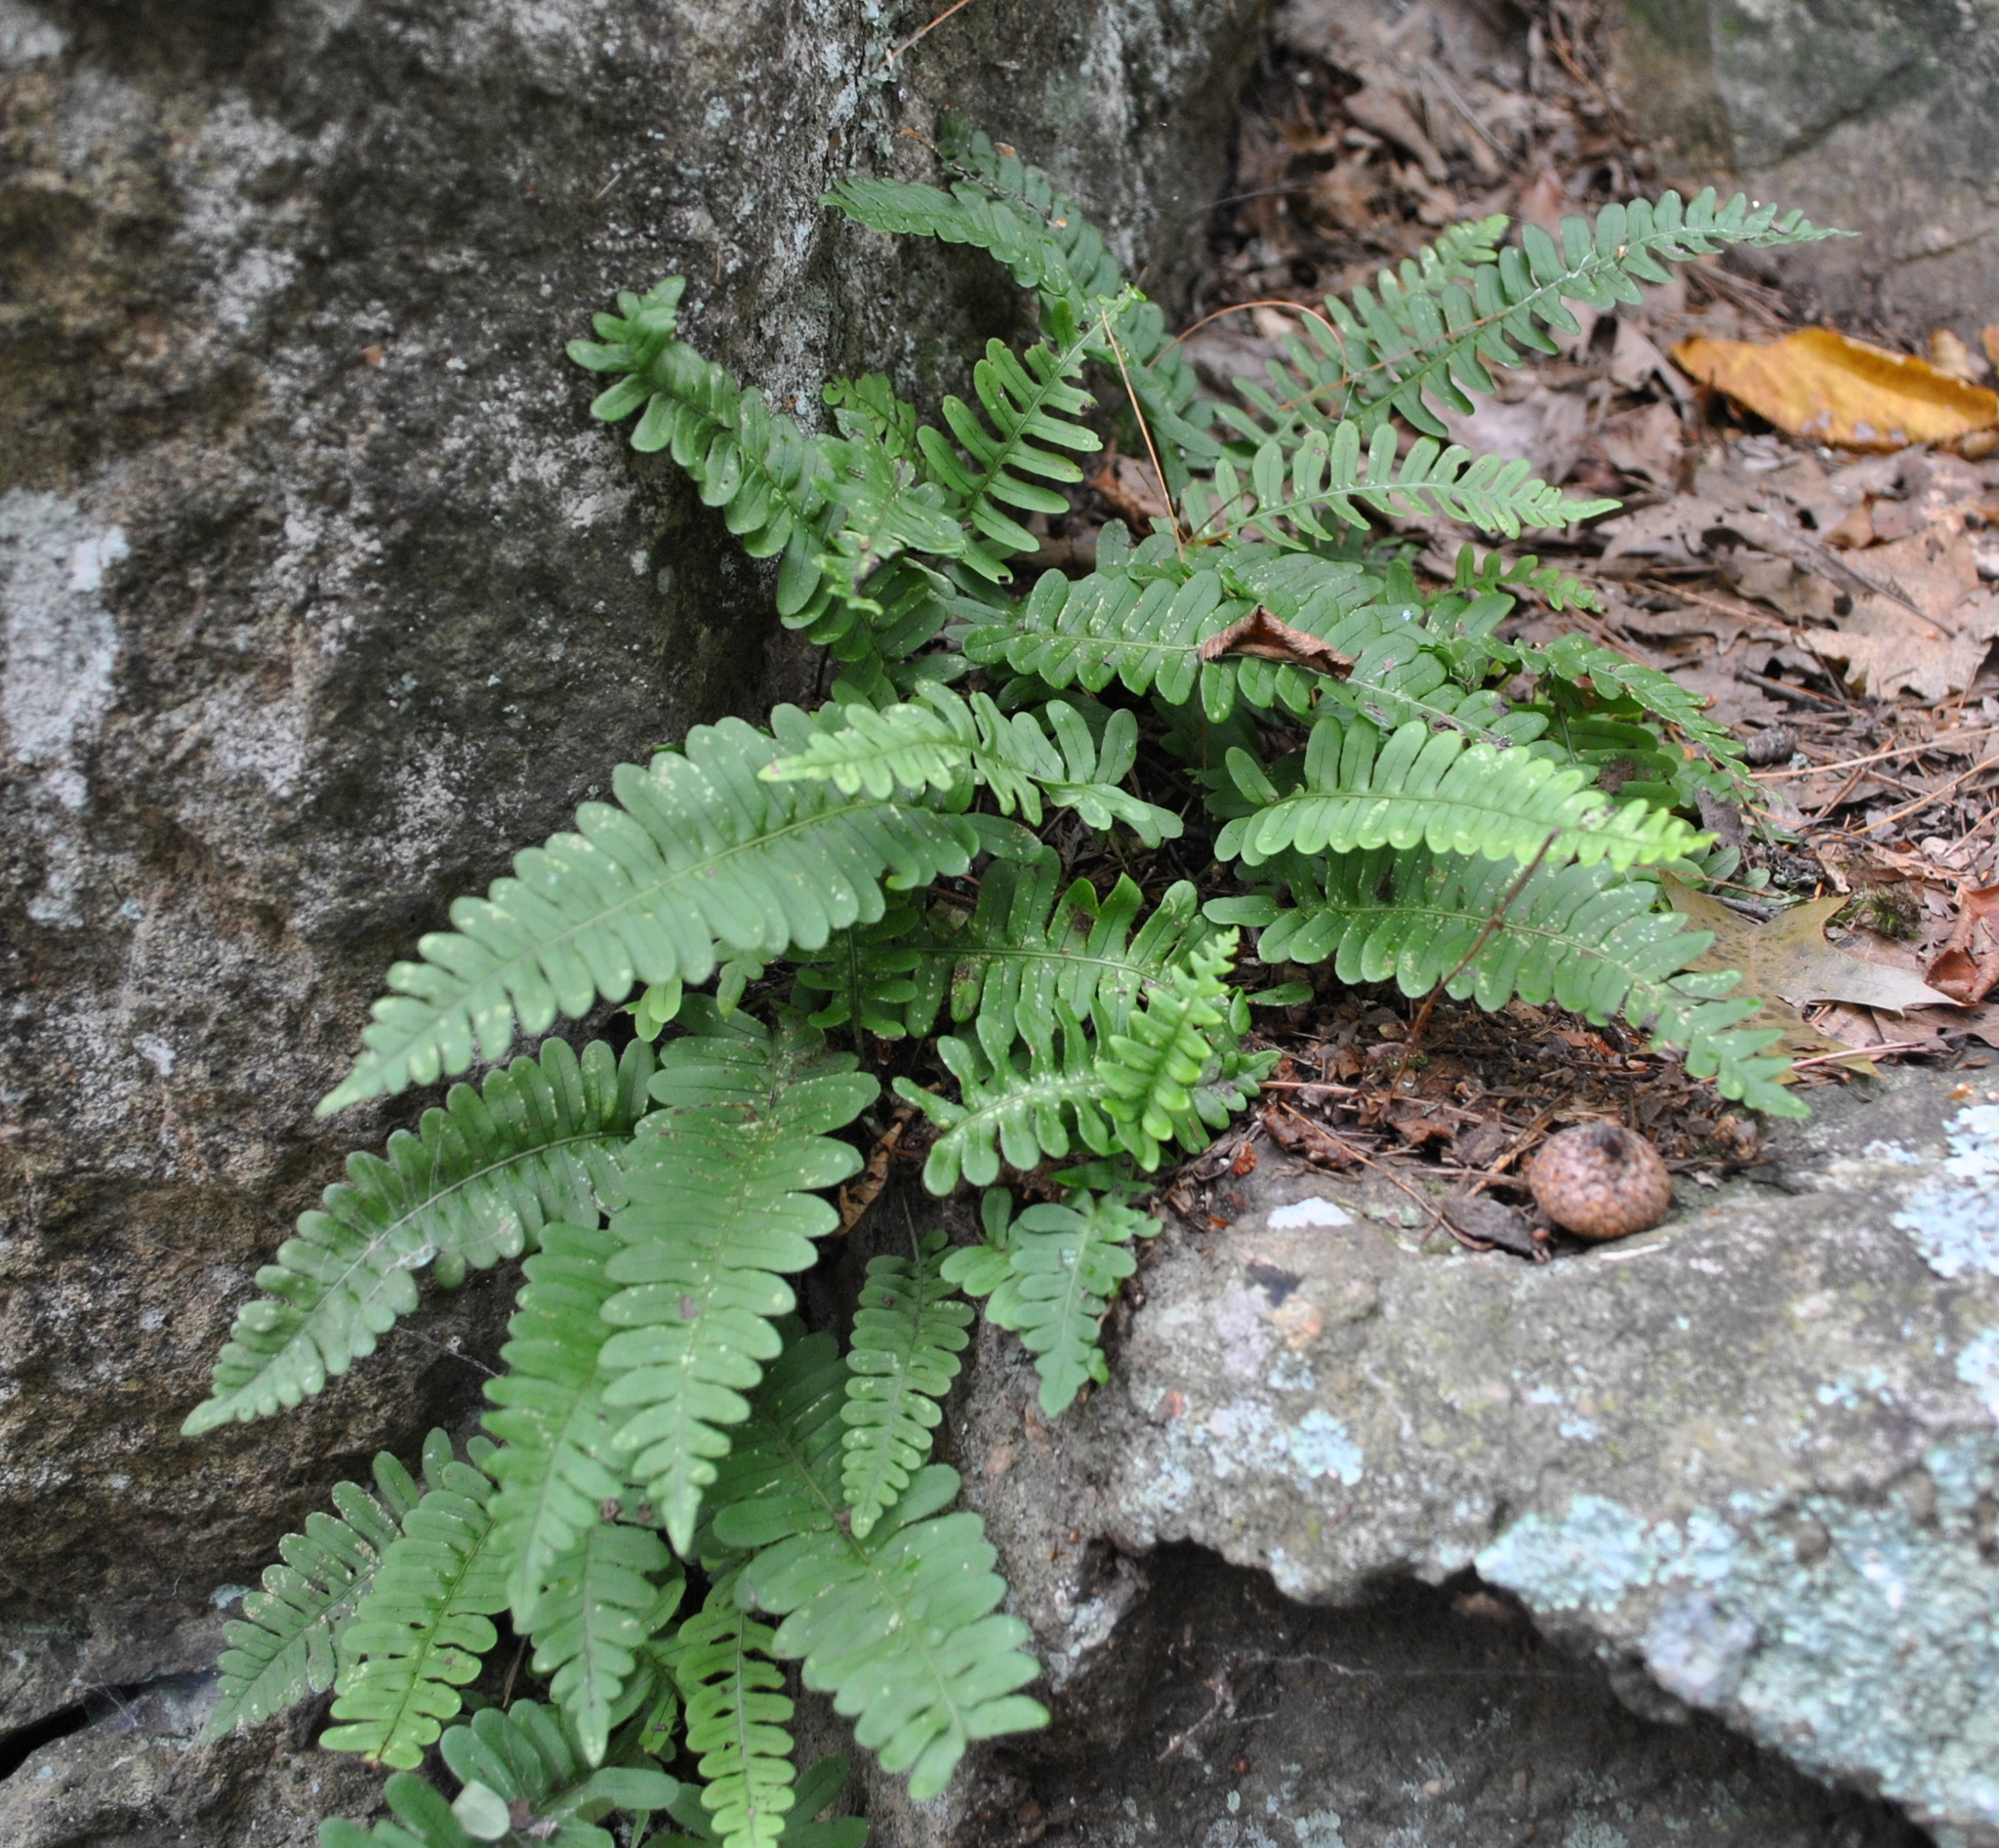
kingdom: Plantae
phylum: Tracheophyta
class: Polypodiopsida
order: Polypodiales
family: Polypodiaceae
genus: Polypodium
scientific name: Polypodium virginianum
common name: American wall fern
